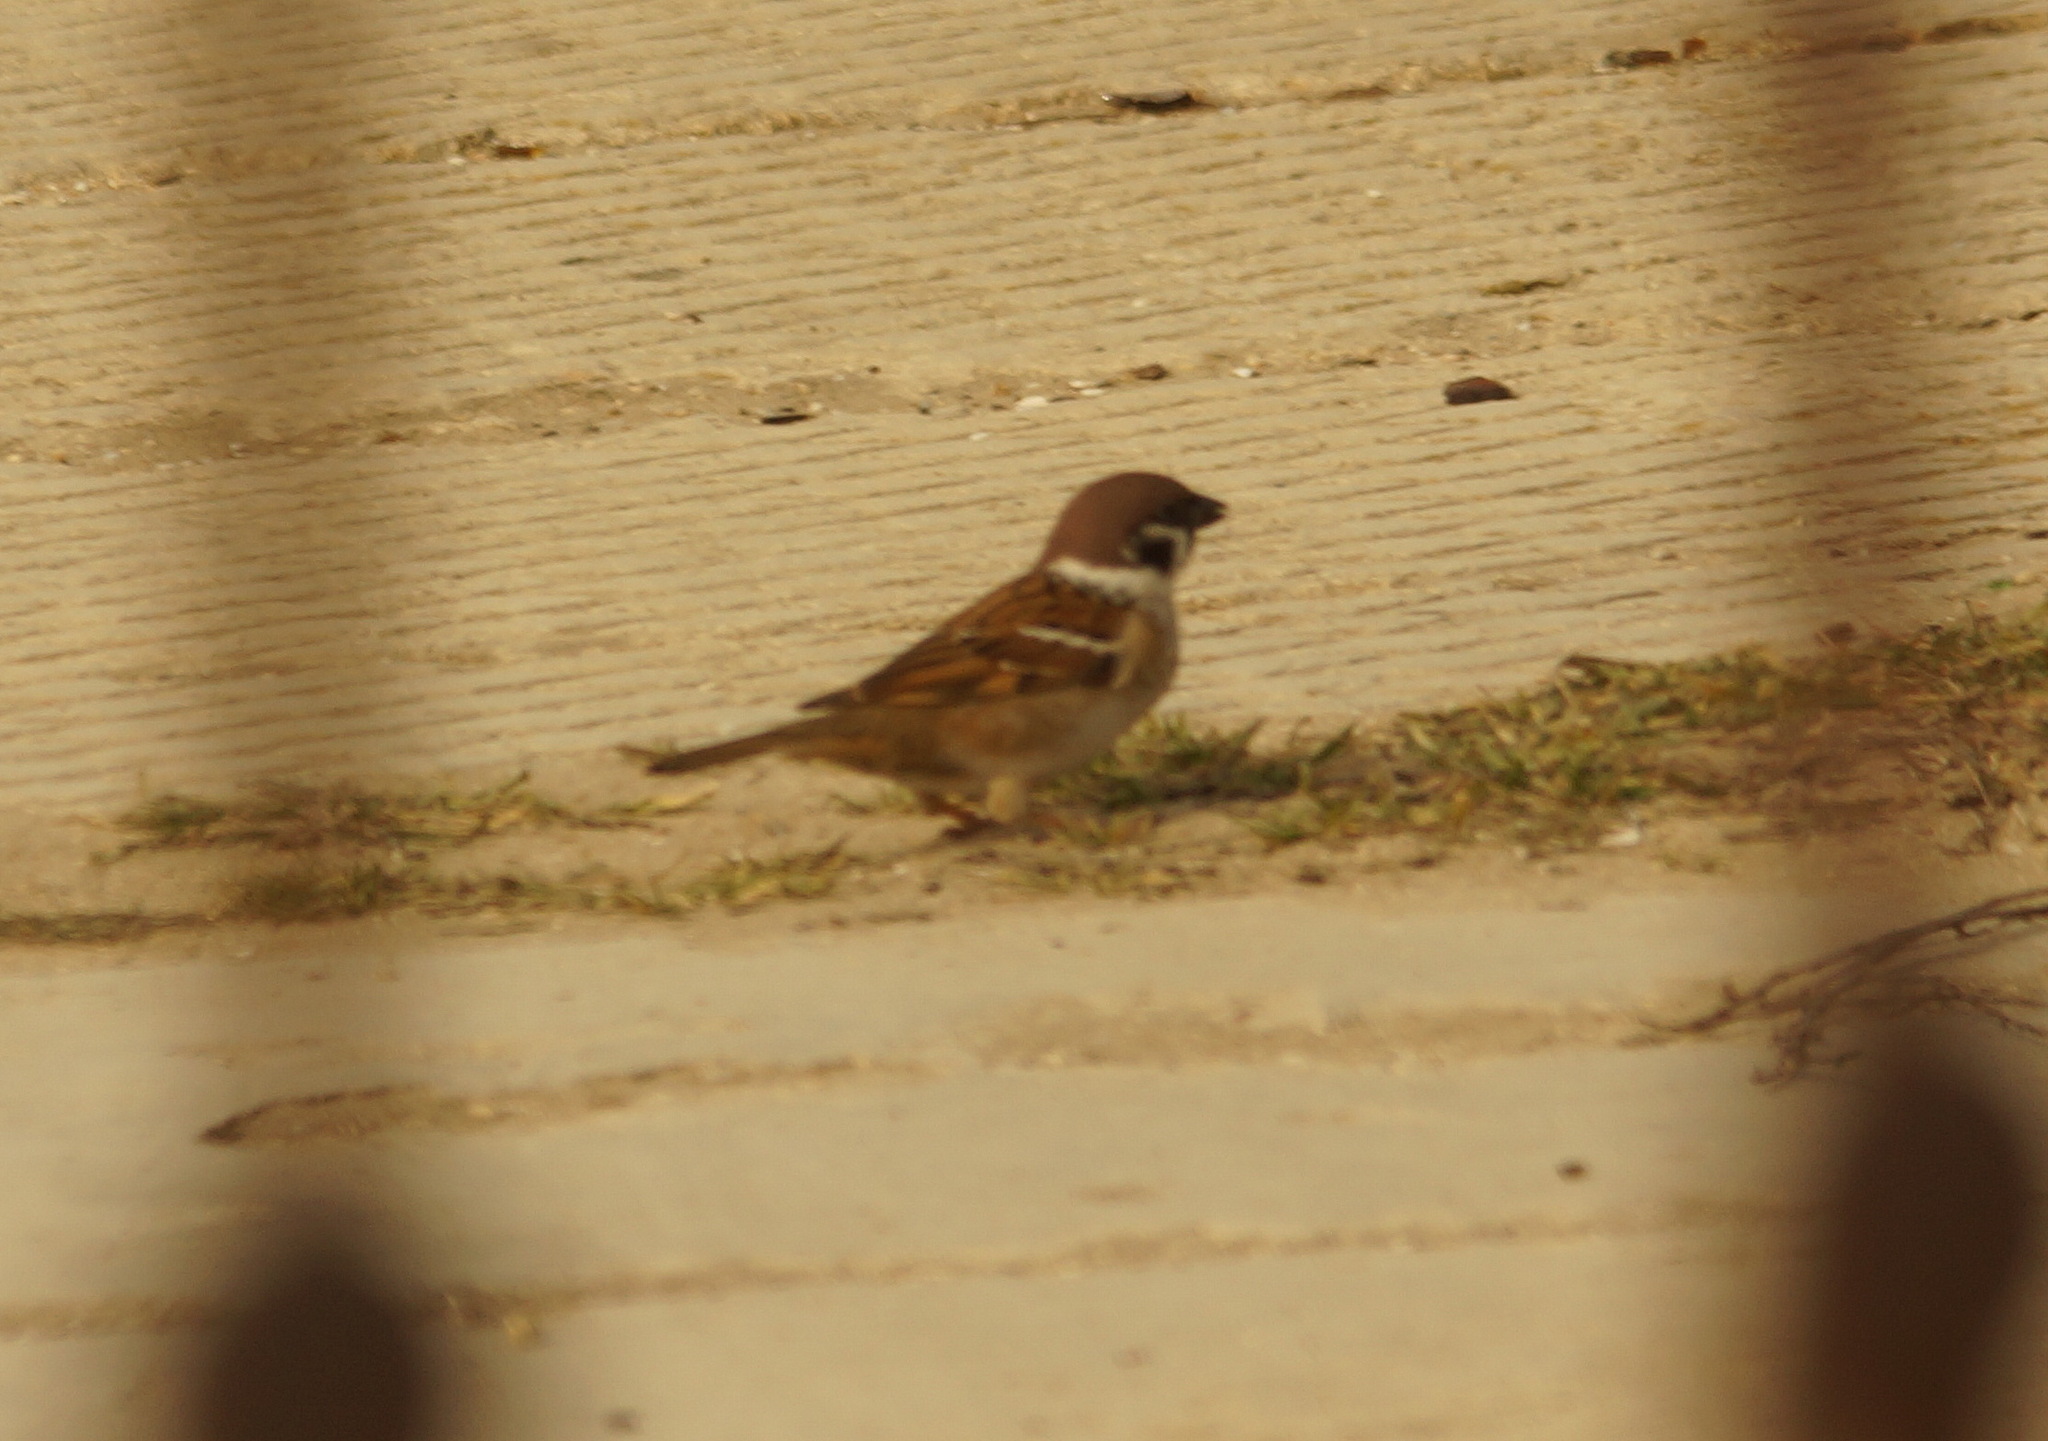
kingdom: Animalia
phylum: Chordata
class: Aves
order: Passeriformes
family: Passeridae
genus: Passer
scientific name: Passer montanus
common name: Eurasian tree sparrow
